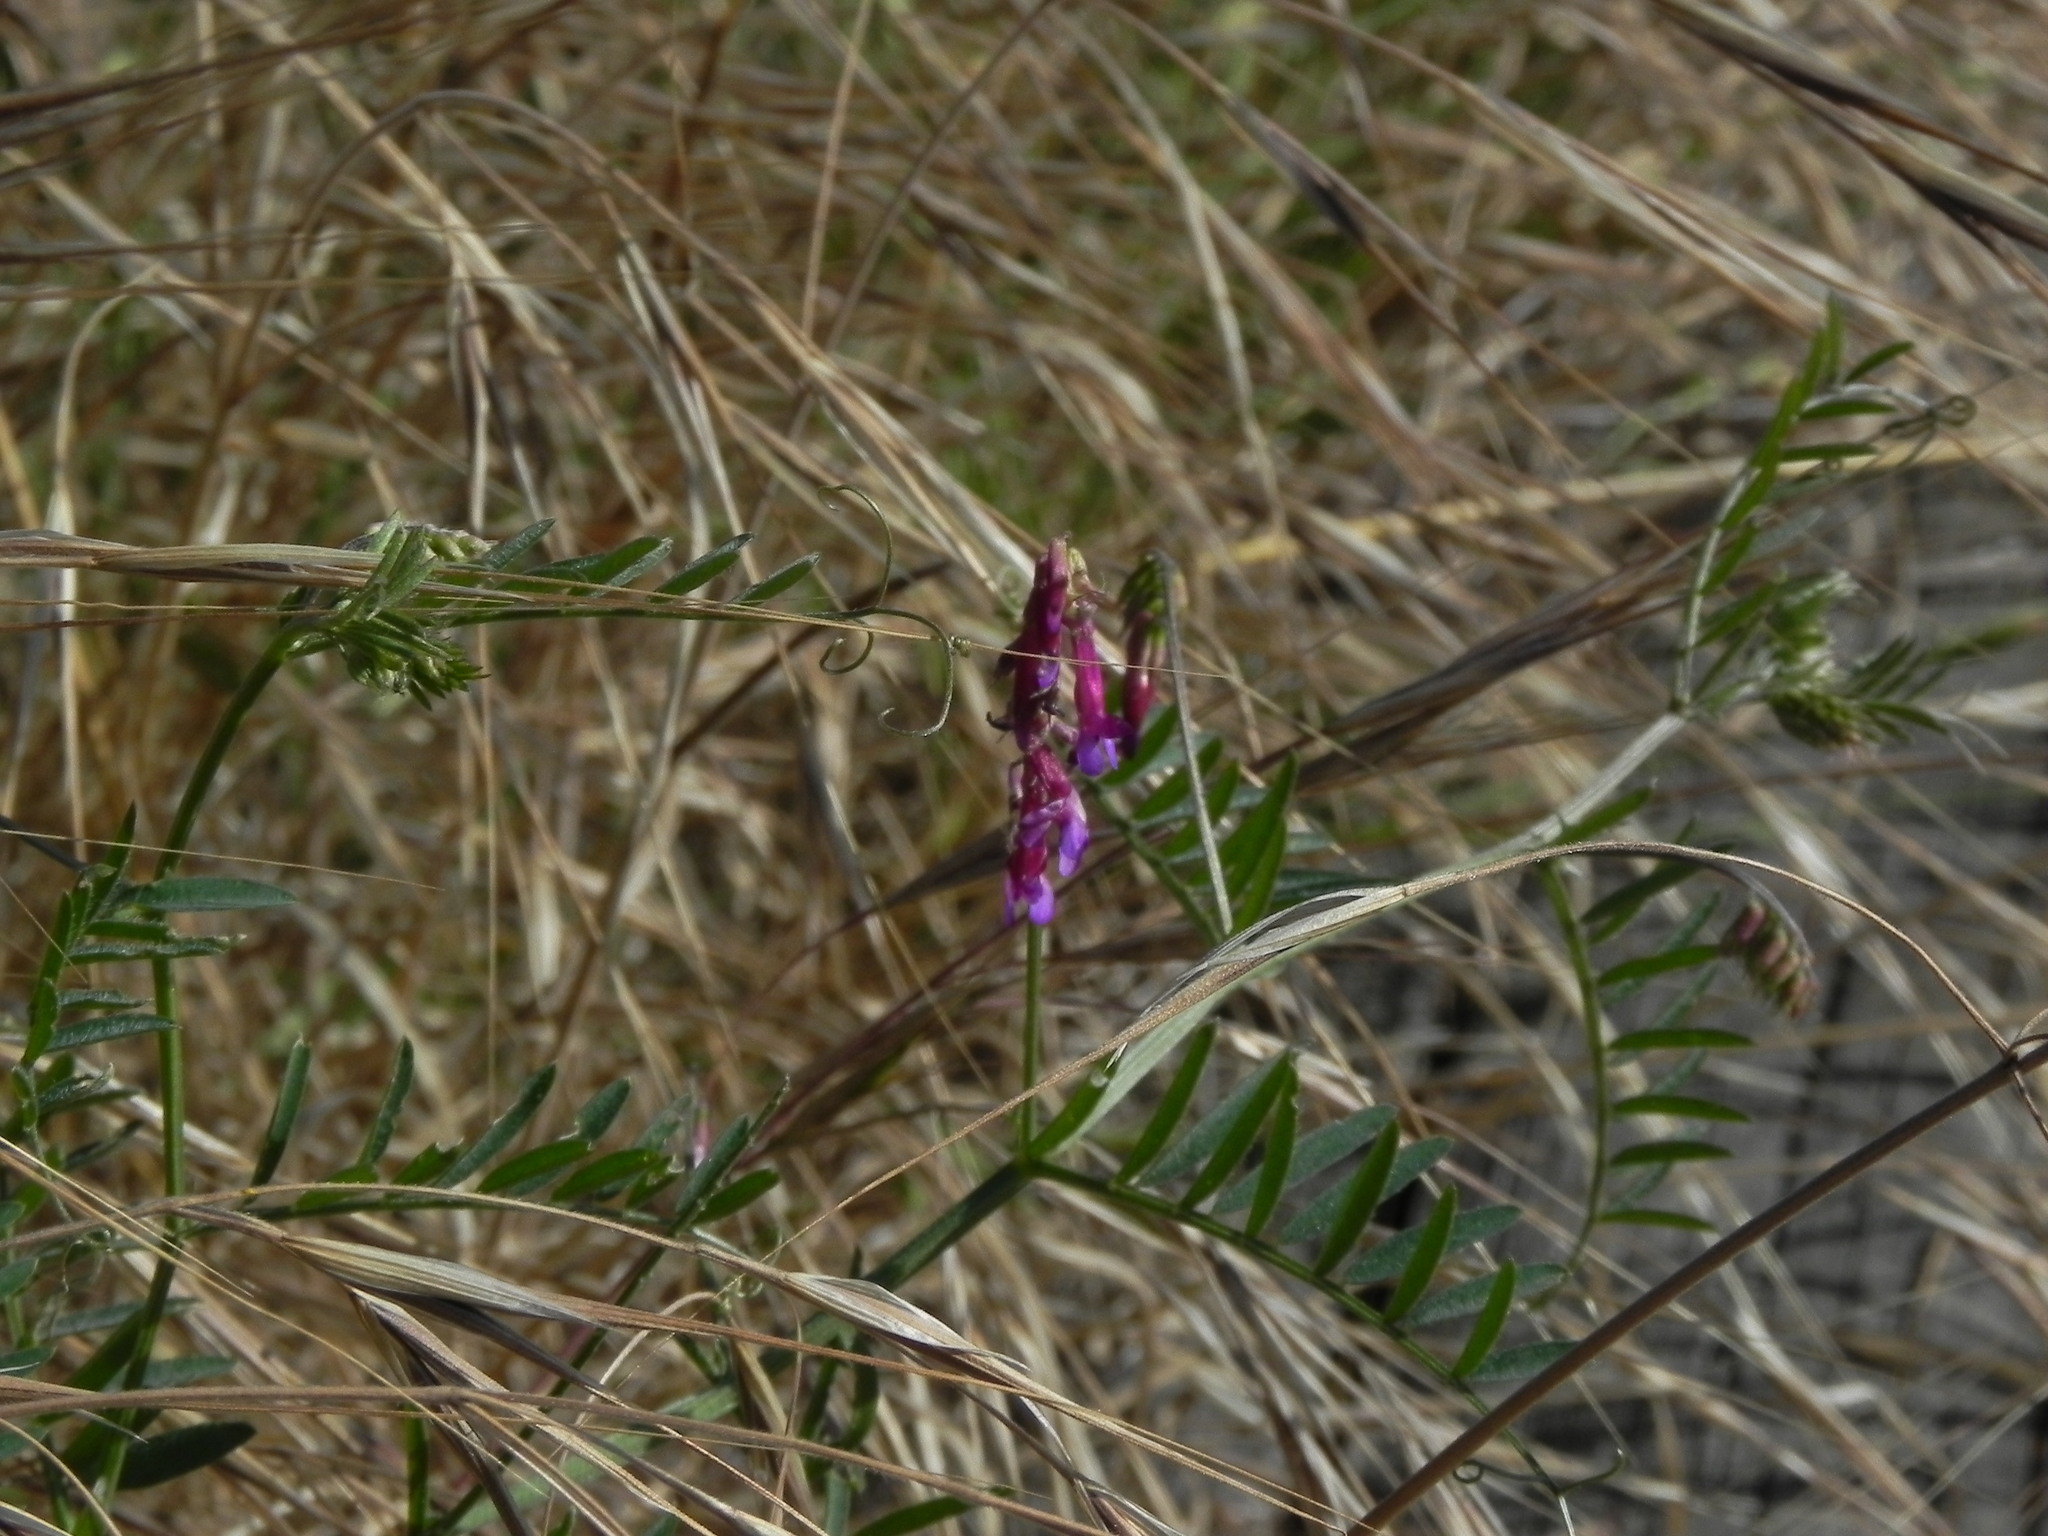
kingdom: Plantae
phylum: Tracheophyta
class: Magnoliopsida
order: Fabales
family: Fabaceae
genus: Vicia
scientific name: Vicia villosa
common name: Fodder vetch
